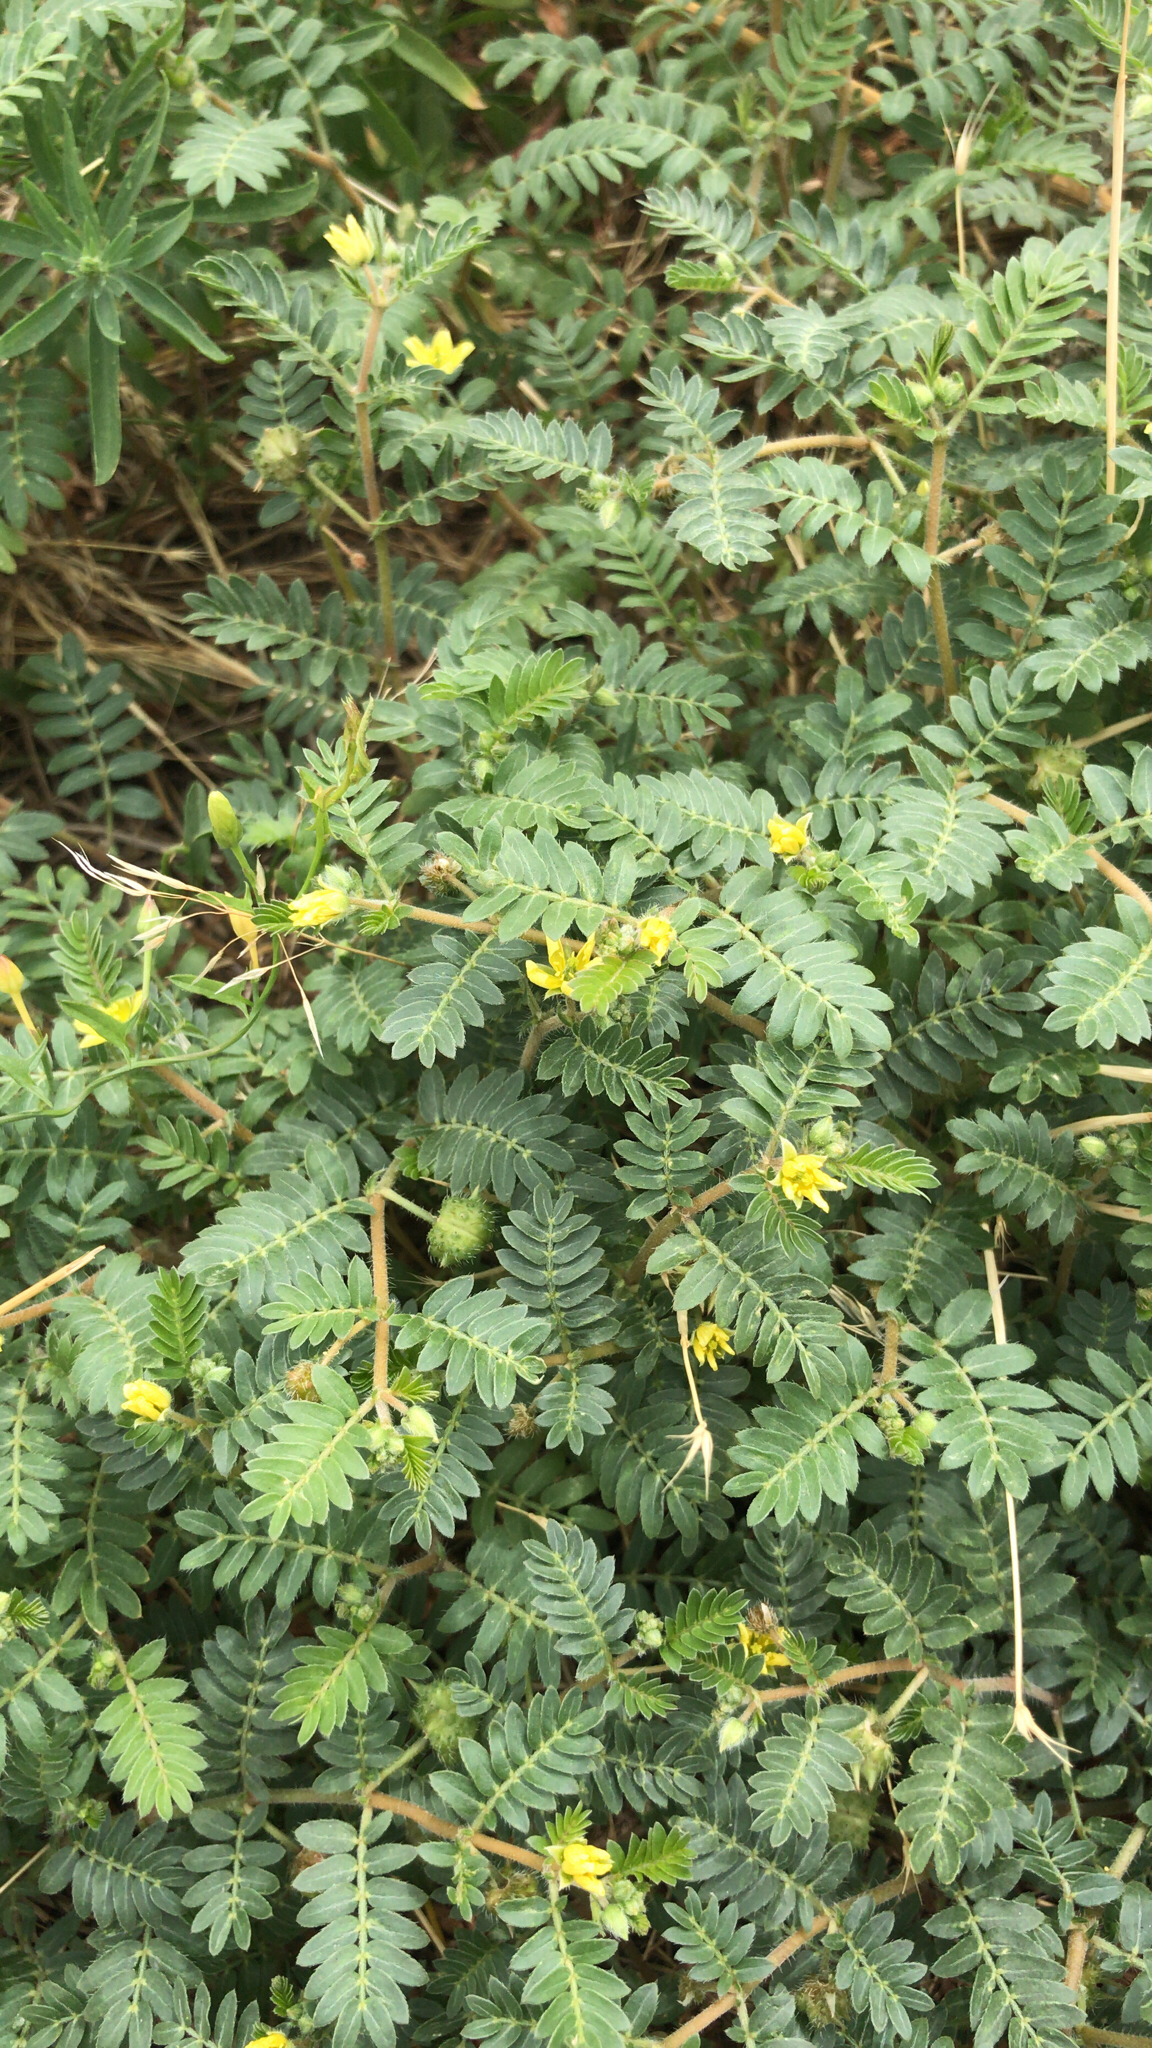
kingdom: Plantae
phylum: Tracheophyta
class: Magnoliopsida
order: Zygophyllales
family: Zygophyllaceae
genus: Tribulus
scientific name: Tribulus terrestris
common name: Puncturevine
